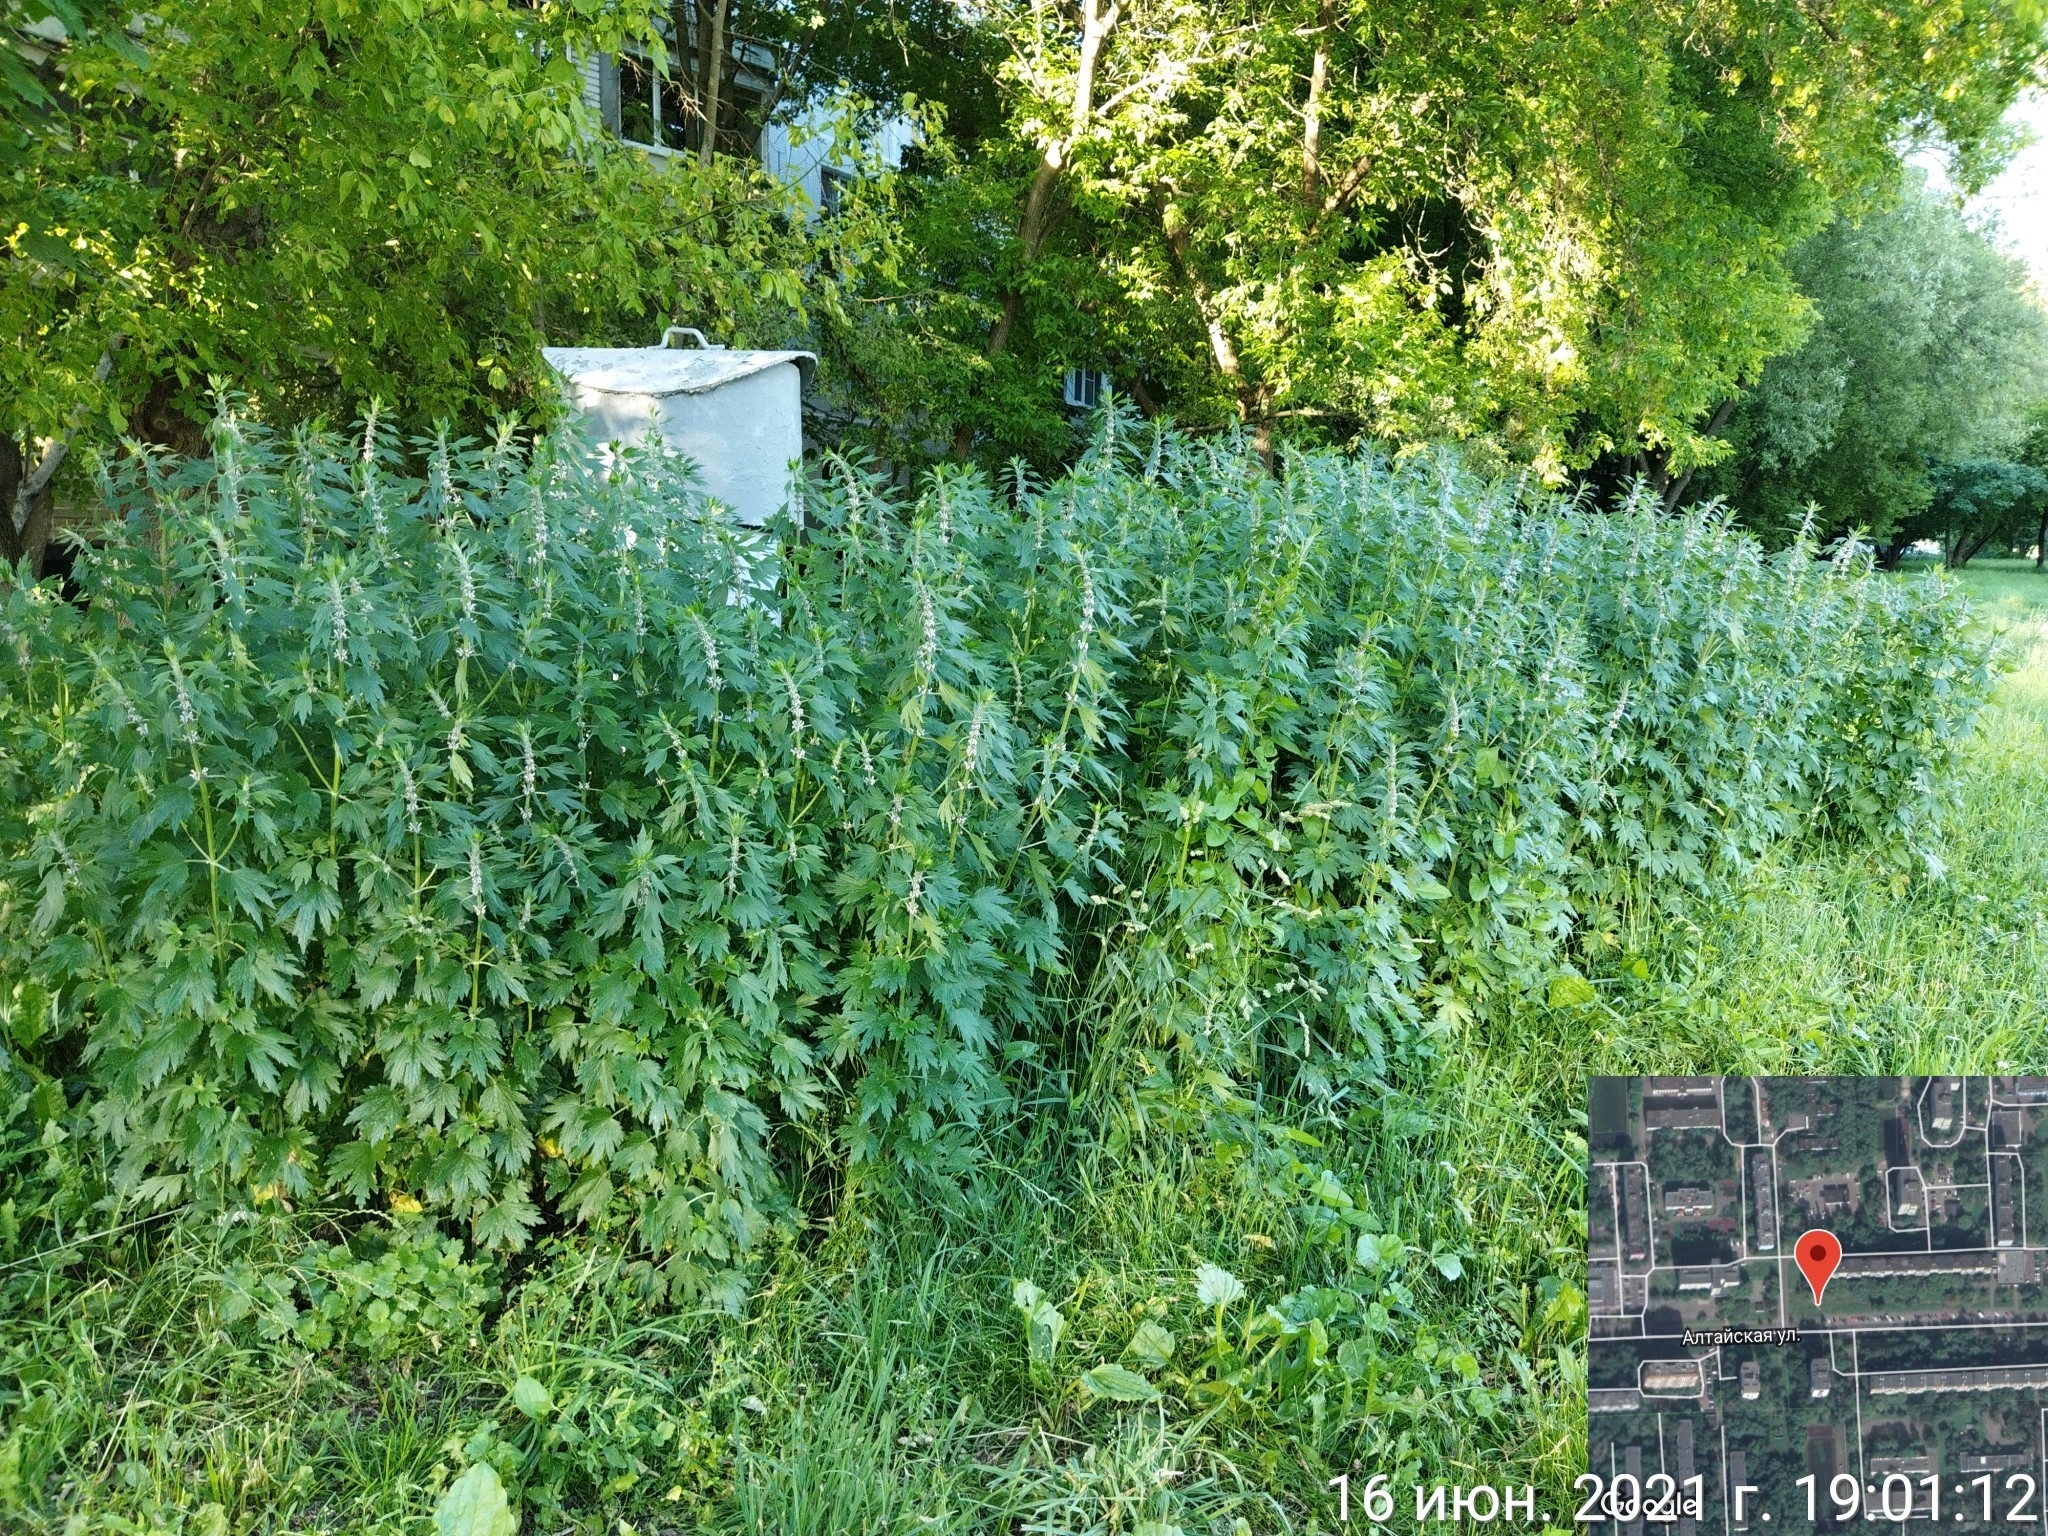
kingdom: Plantae
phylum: Tracheophyta
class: Magnoliopsida
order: Lamiales
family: Lamiaceae
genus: Leonurus
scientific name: Leonurus quinquelobatus
